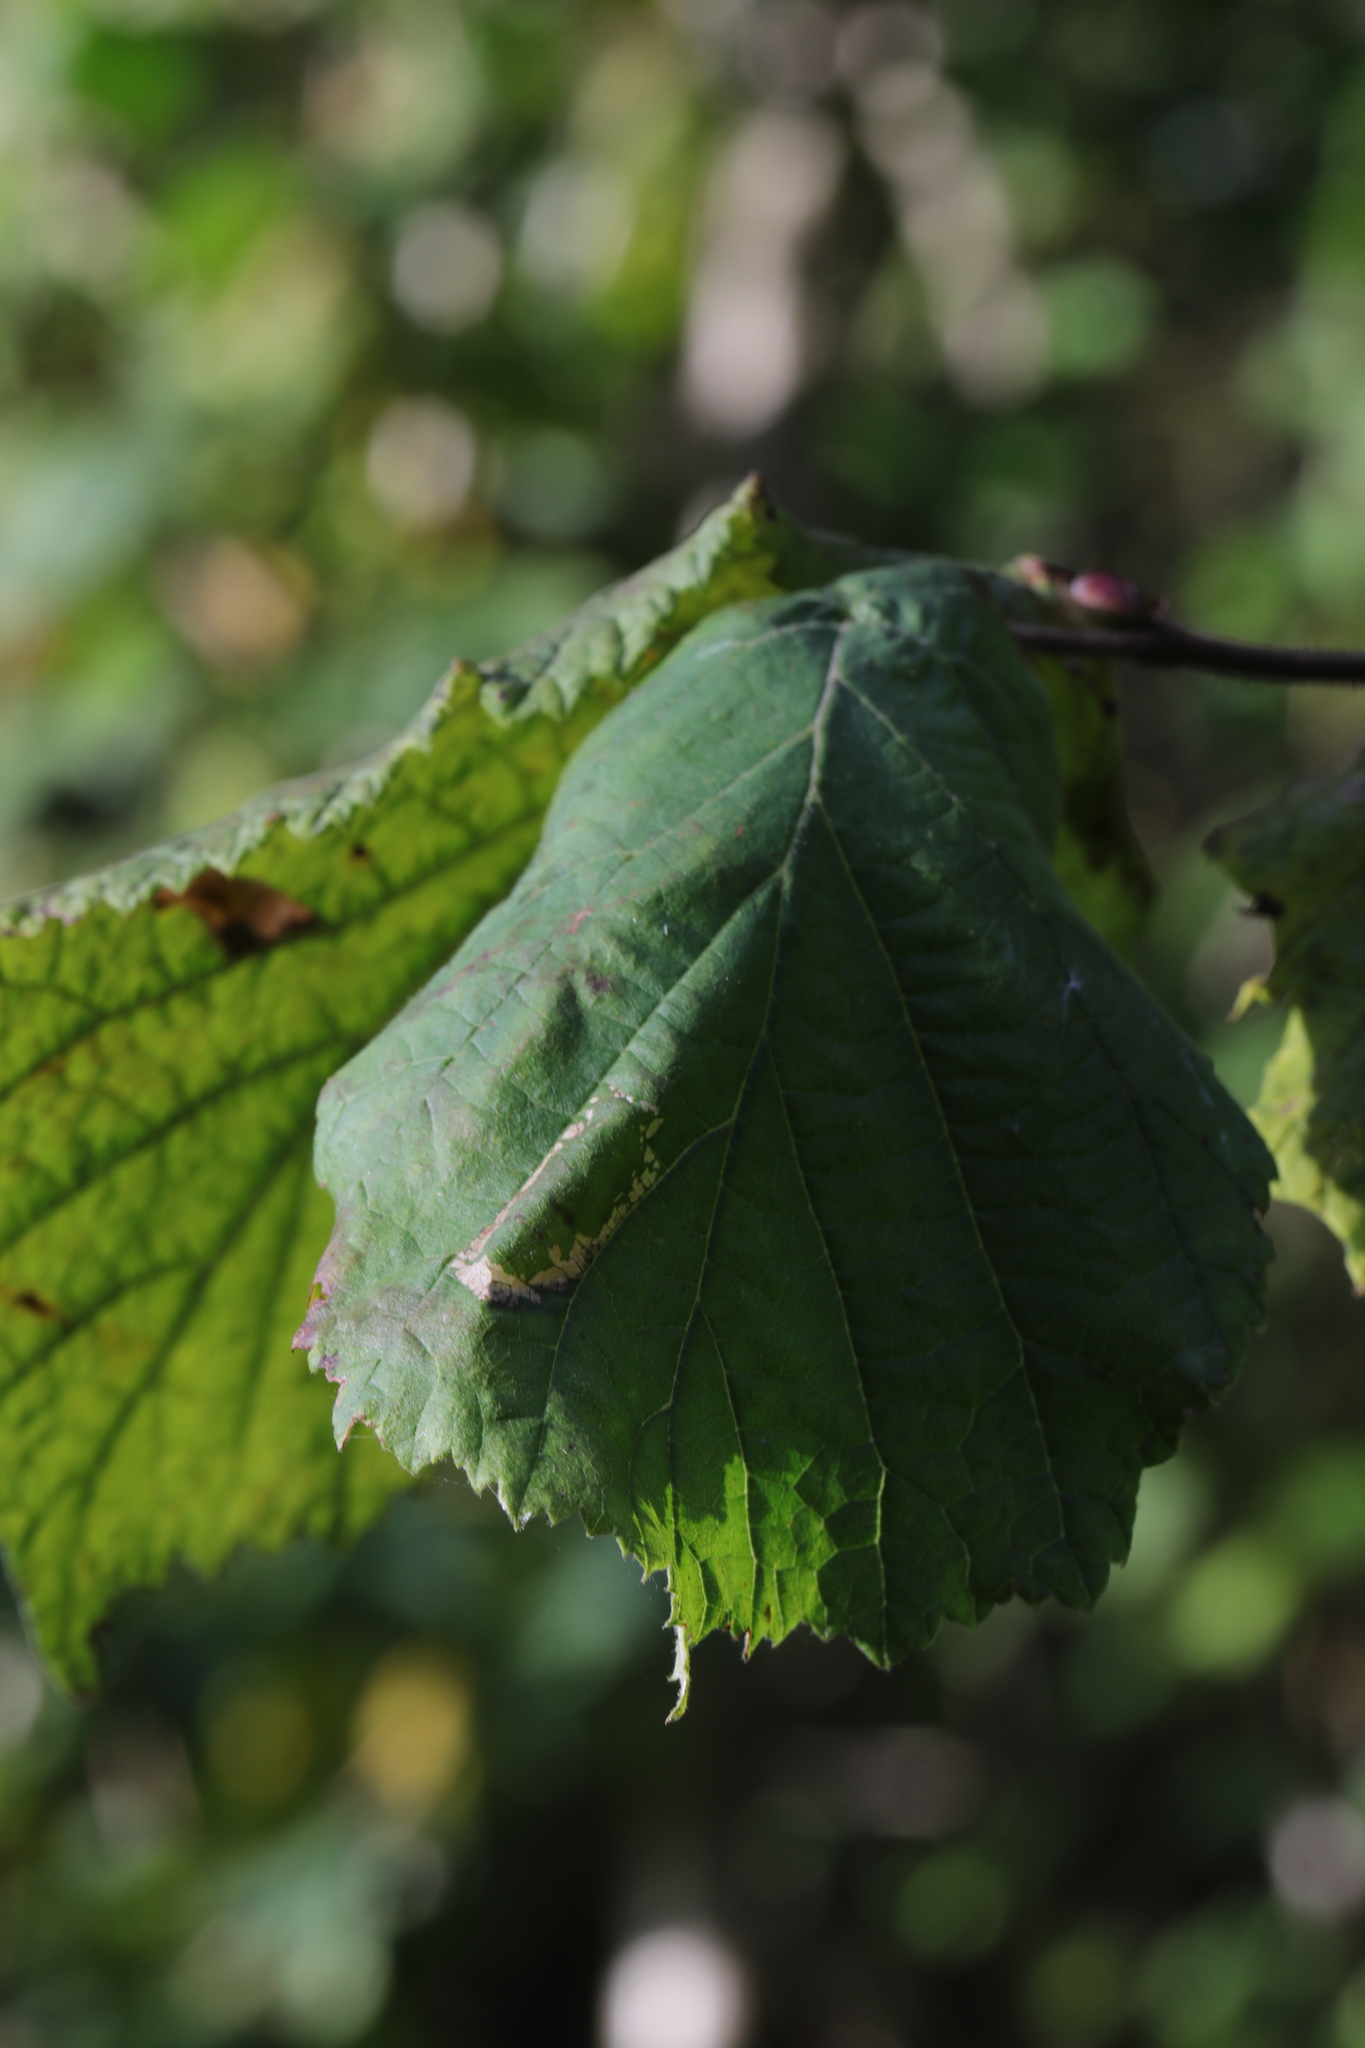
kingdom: Animalia
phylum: Arthropoda
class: Insecta
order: Lepidoptera
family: Gracillariidae
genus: Phyllonorycter
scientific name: Phyllonorycter nicellii
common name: Red hazel midget
